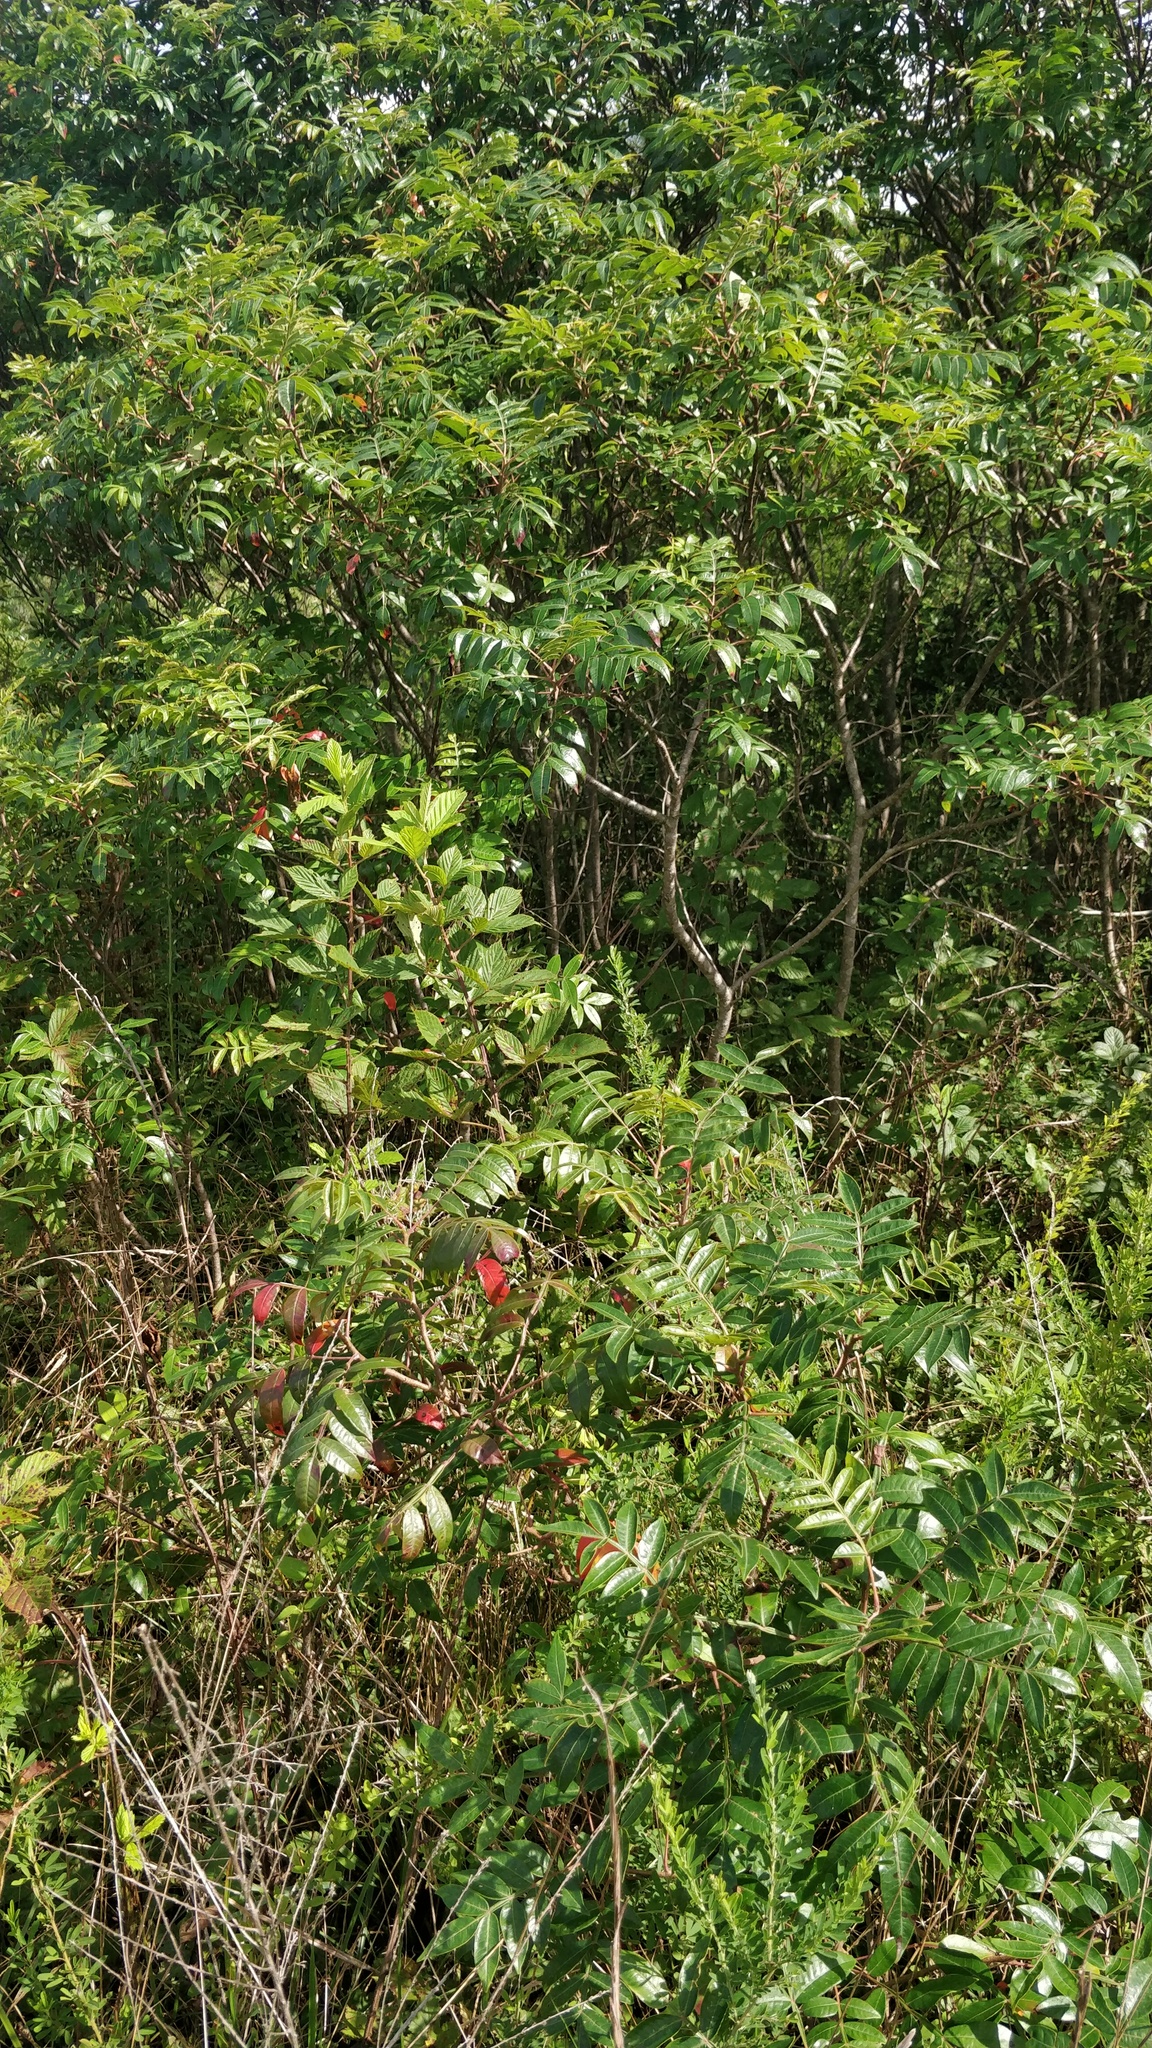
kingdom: Plantae
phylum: Tracheophyta
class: Magnoliopsida
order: Sapindales
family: Anacardiaceae
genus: Rhus
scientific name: Rhus copallina
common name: Shining sumac
